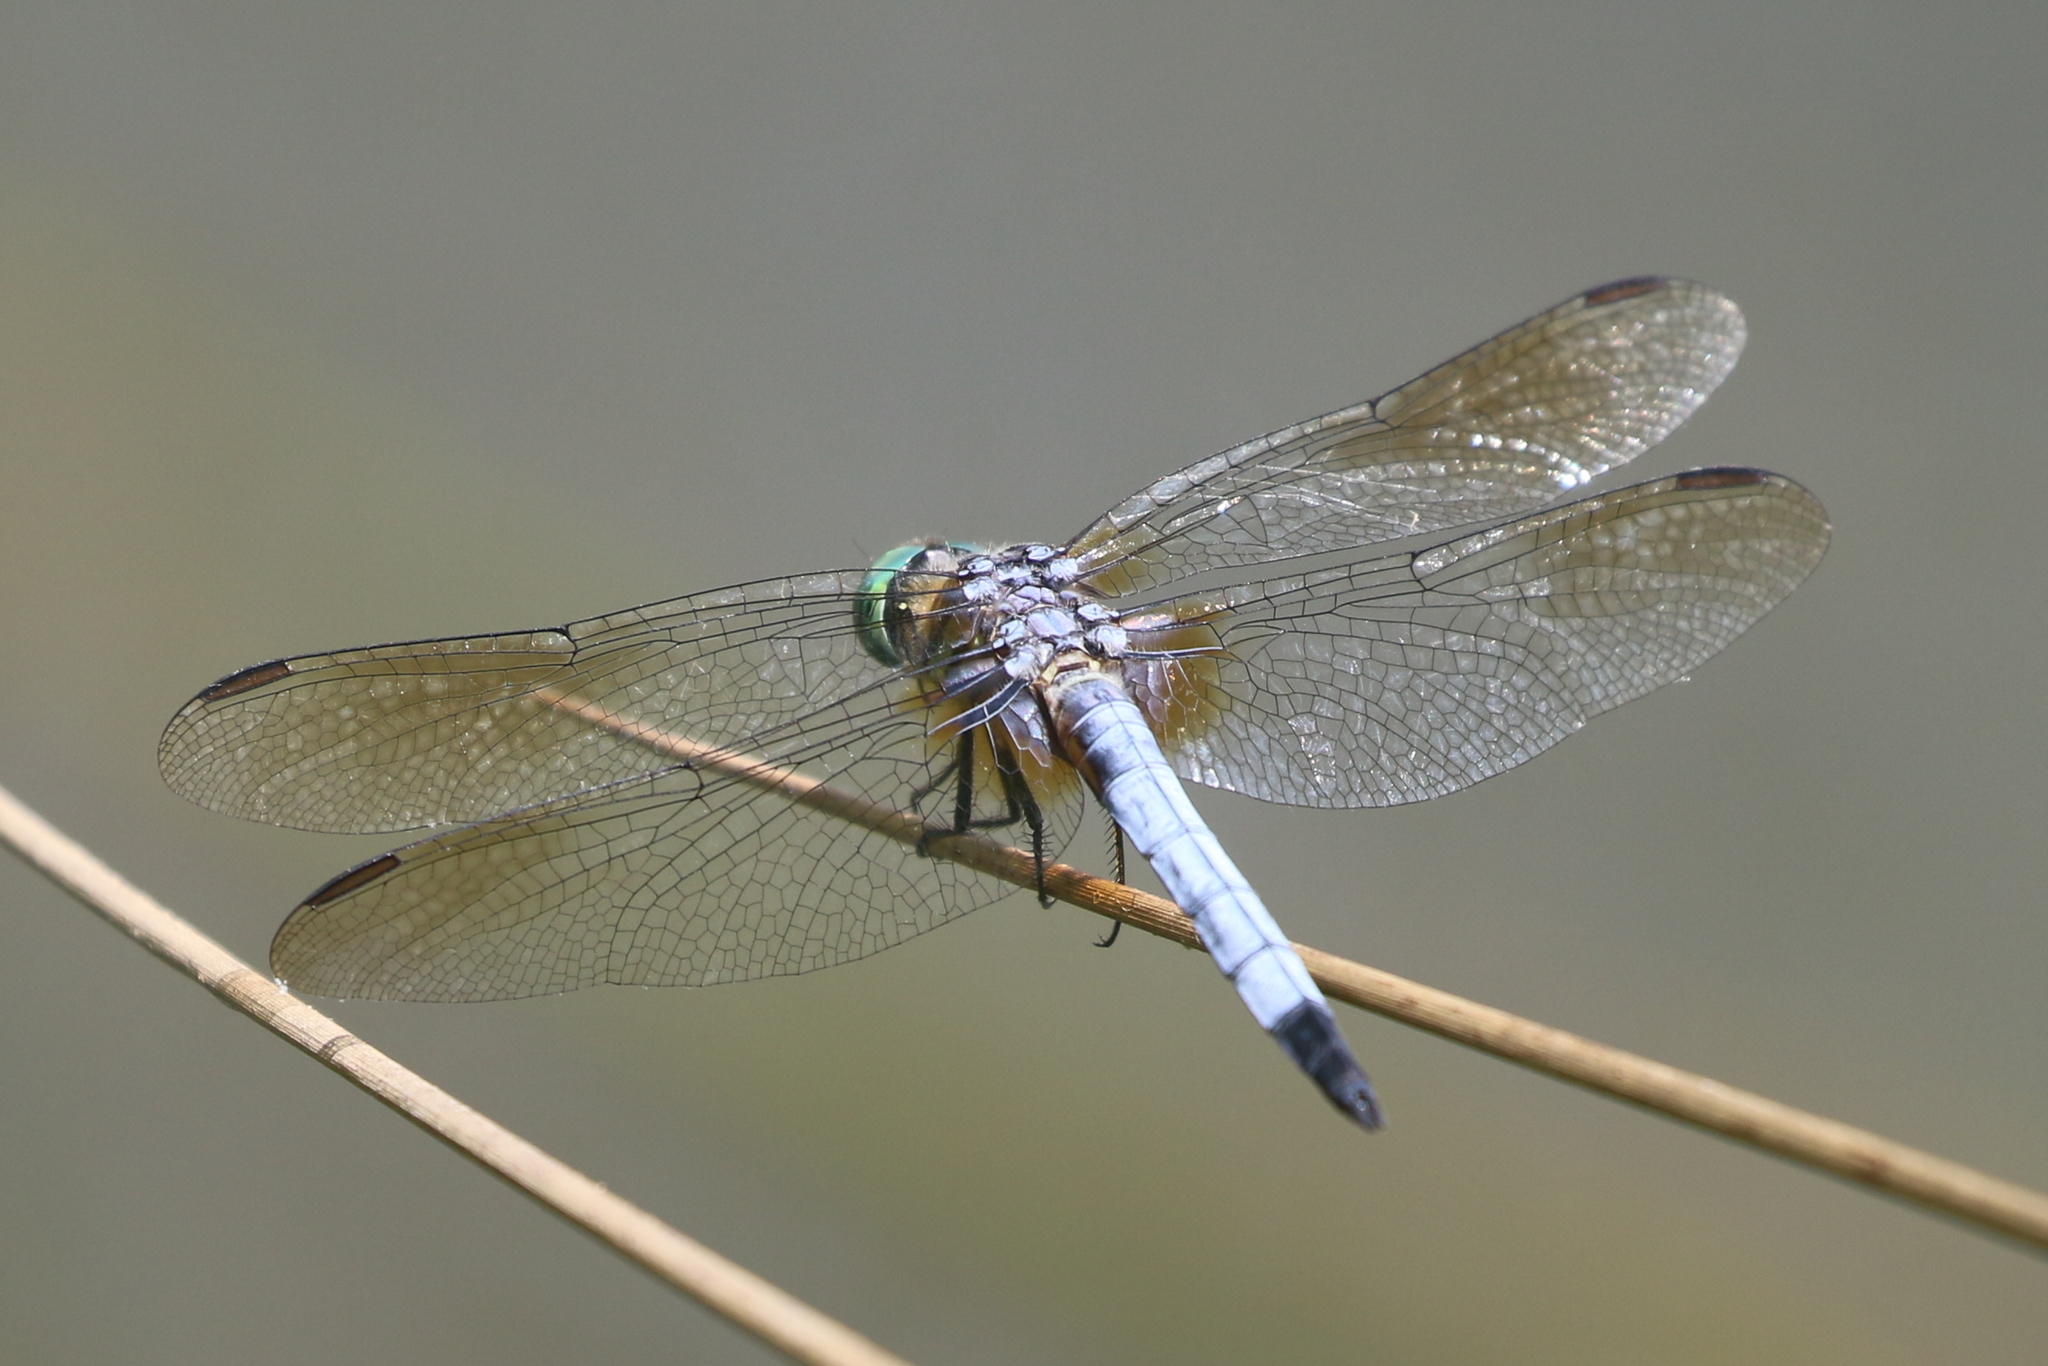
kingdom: Animalia
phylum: Arthropoda
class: Insecta
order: Odonata
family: Libellulidae
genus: Pachydiplax
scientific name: Pachydiplax longipennis
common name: Blue dasher
